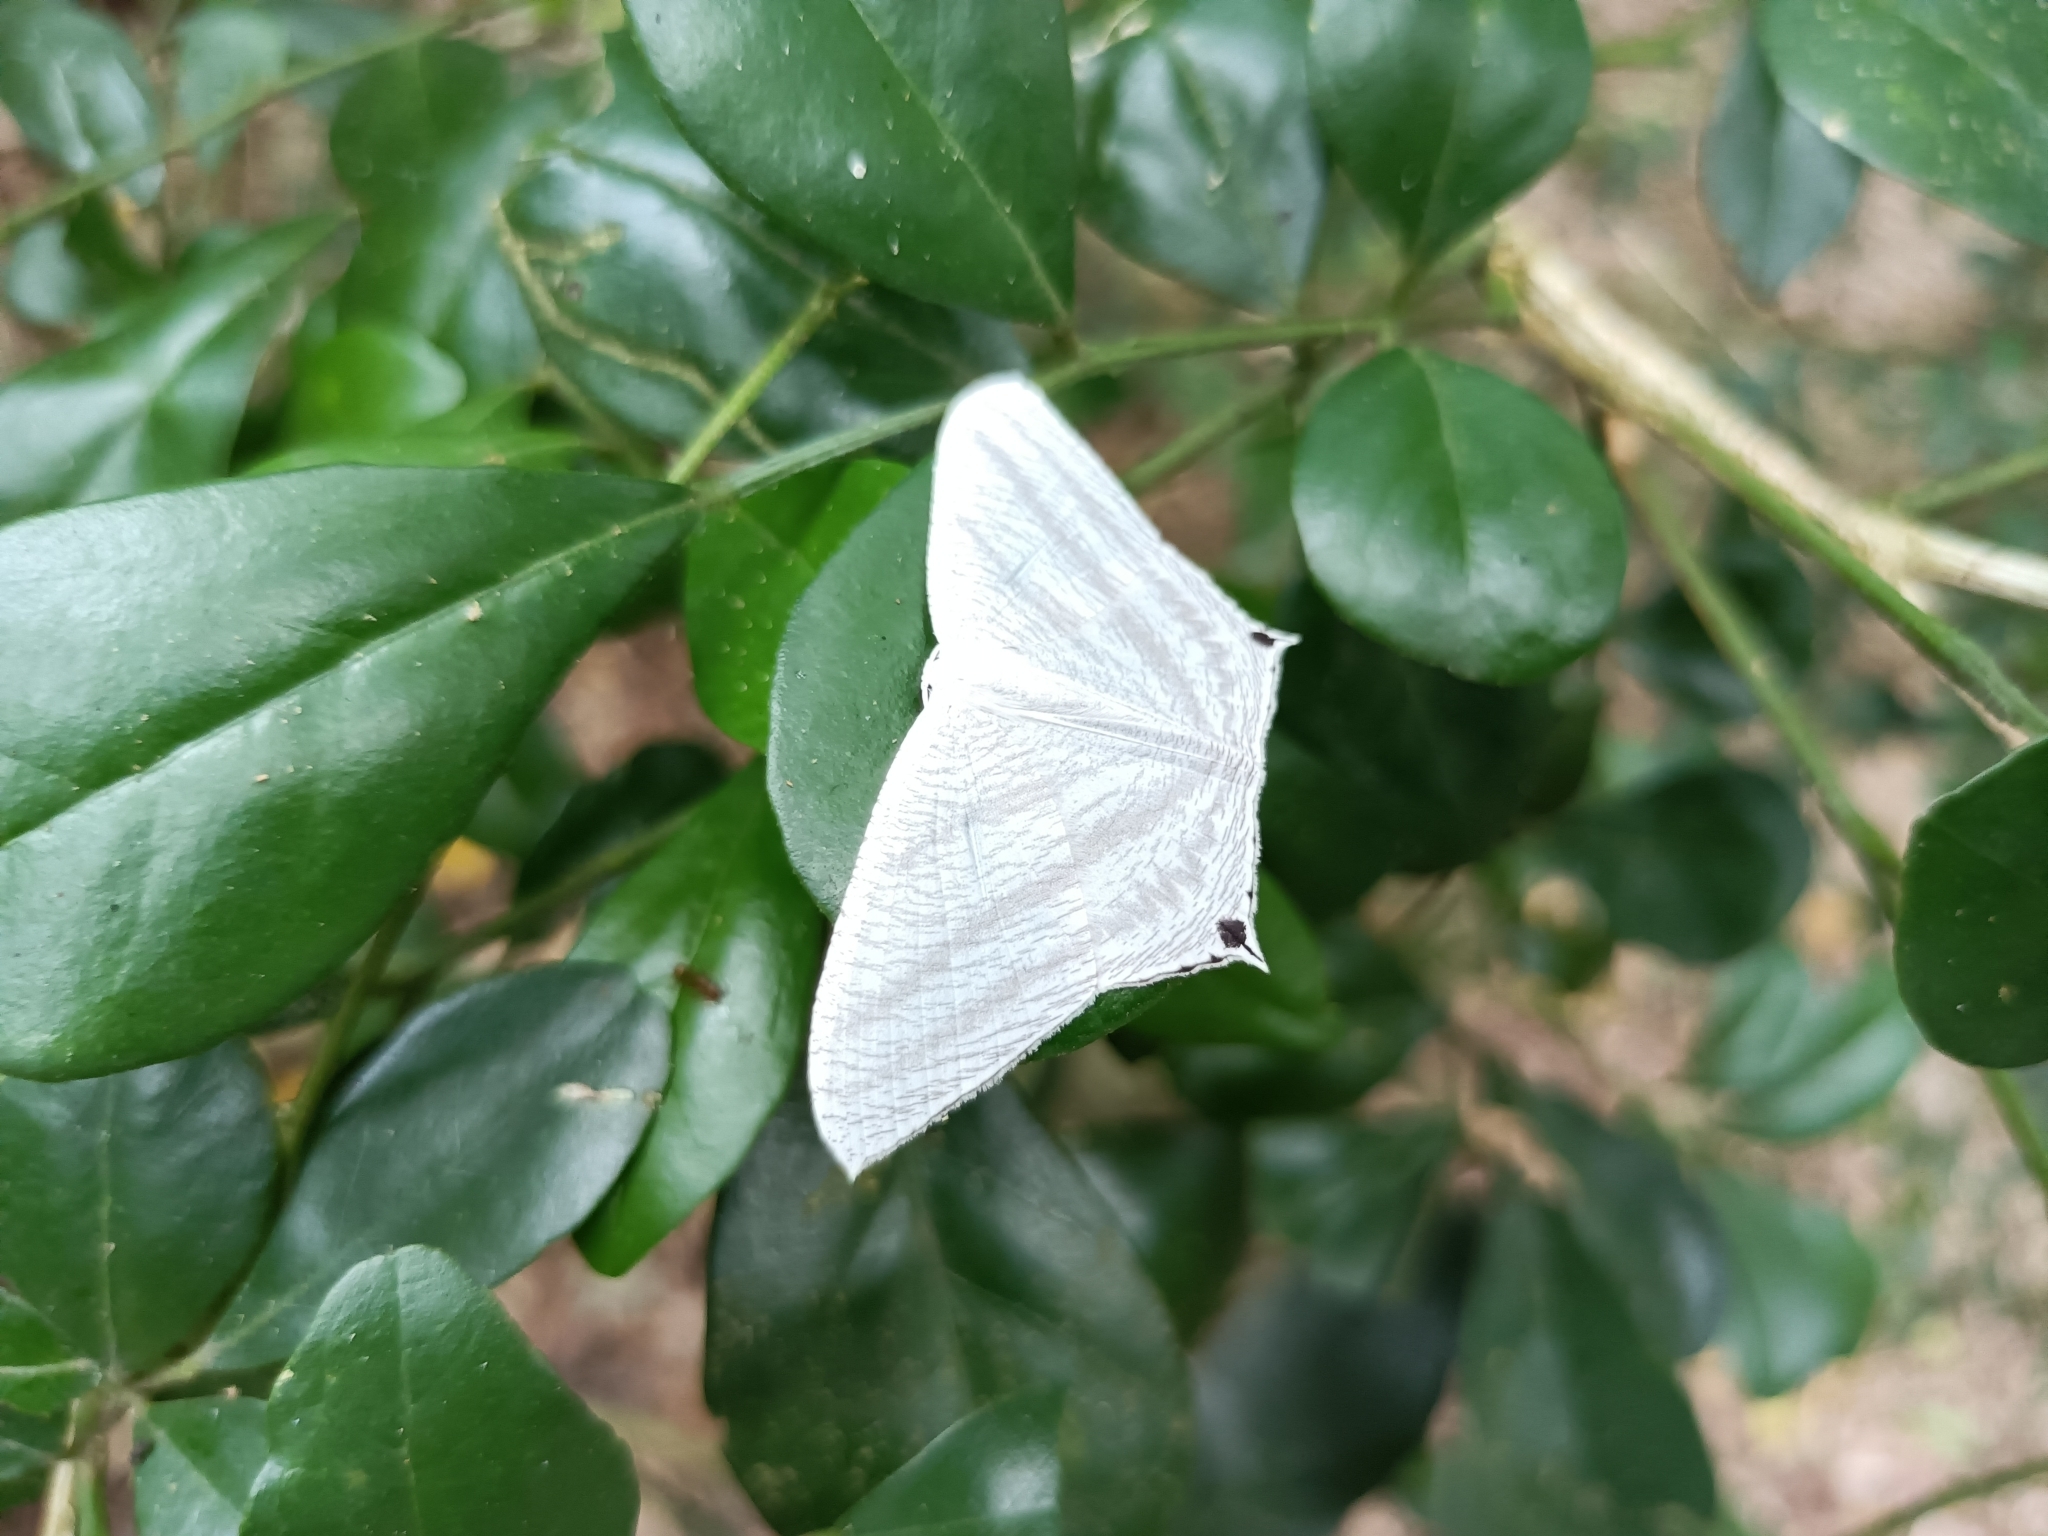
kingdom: Animalia
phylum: Arthropoda
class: Insecta
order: Lepidoptera
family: Uraniidae
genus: Micronia
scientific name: Micronia aculeata
